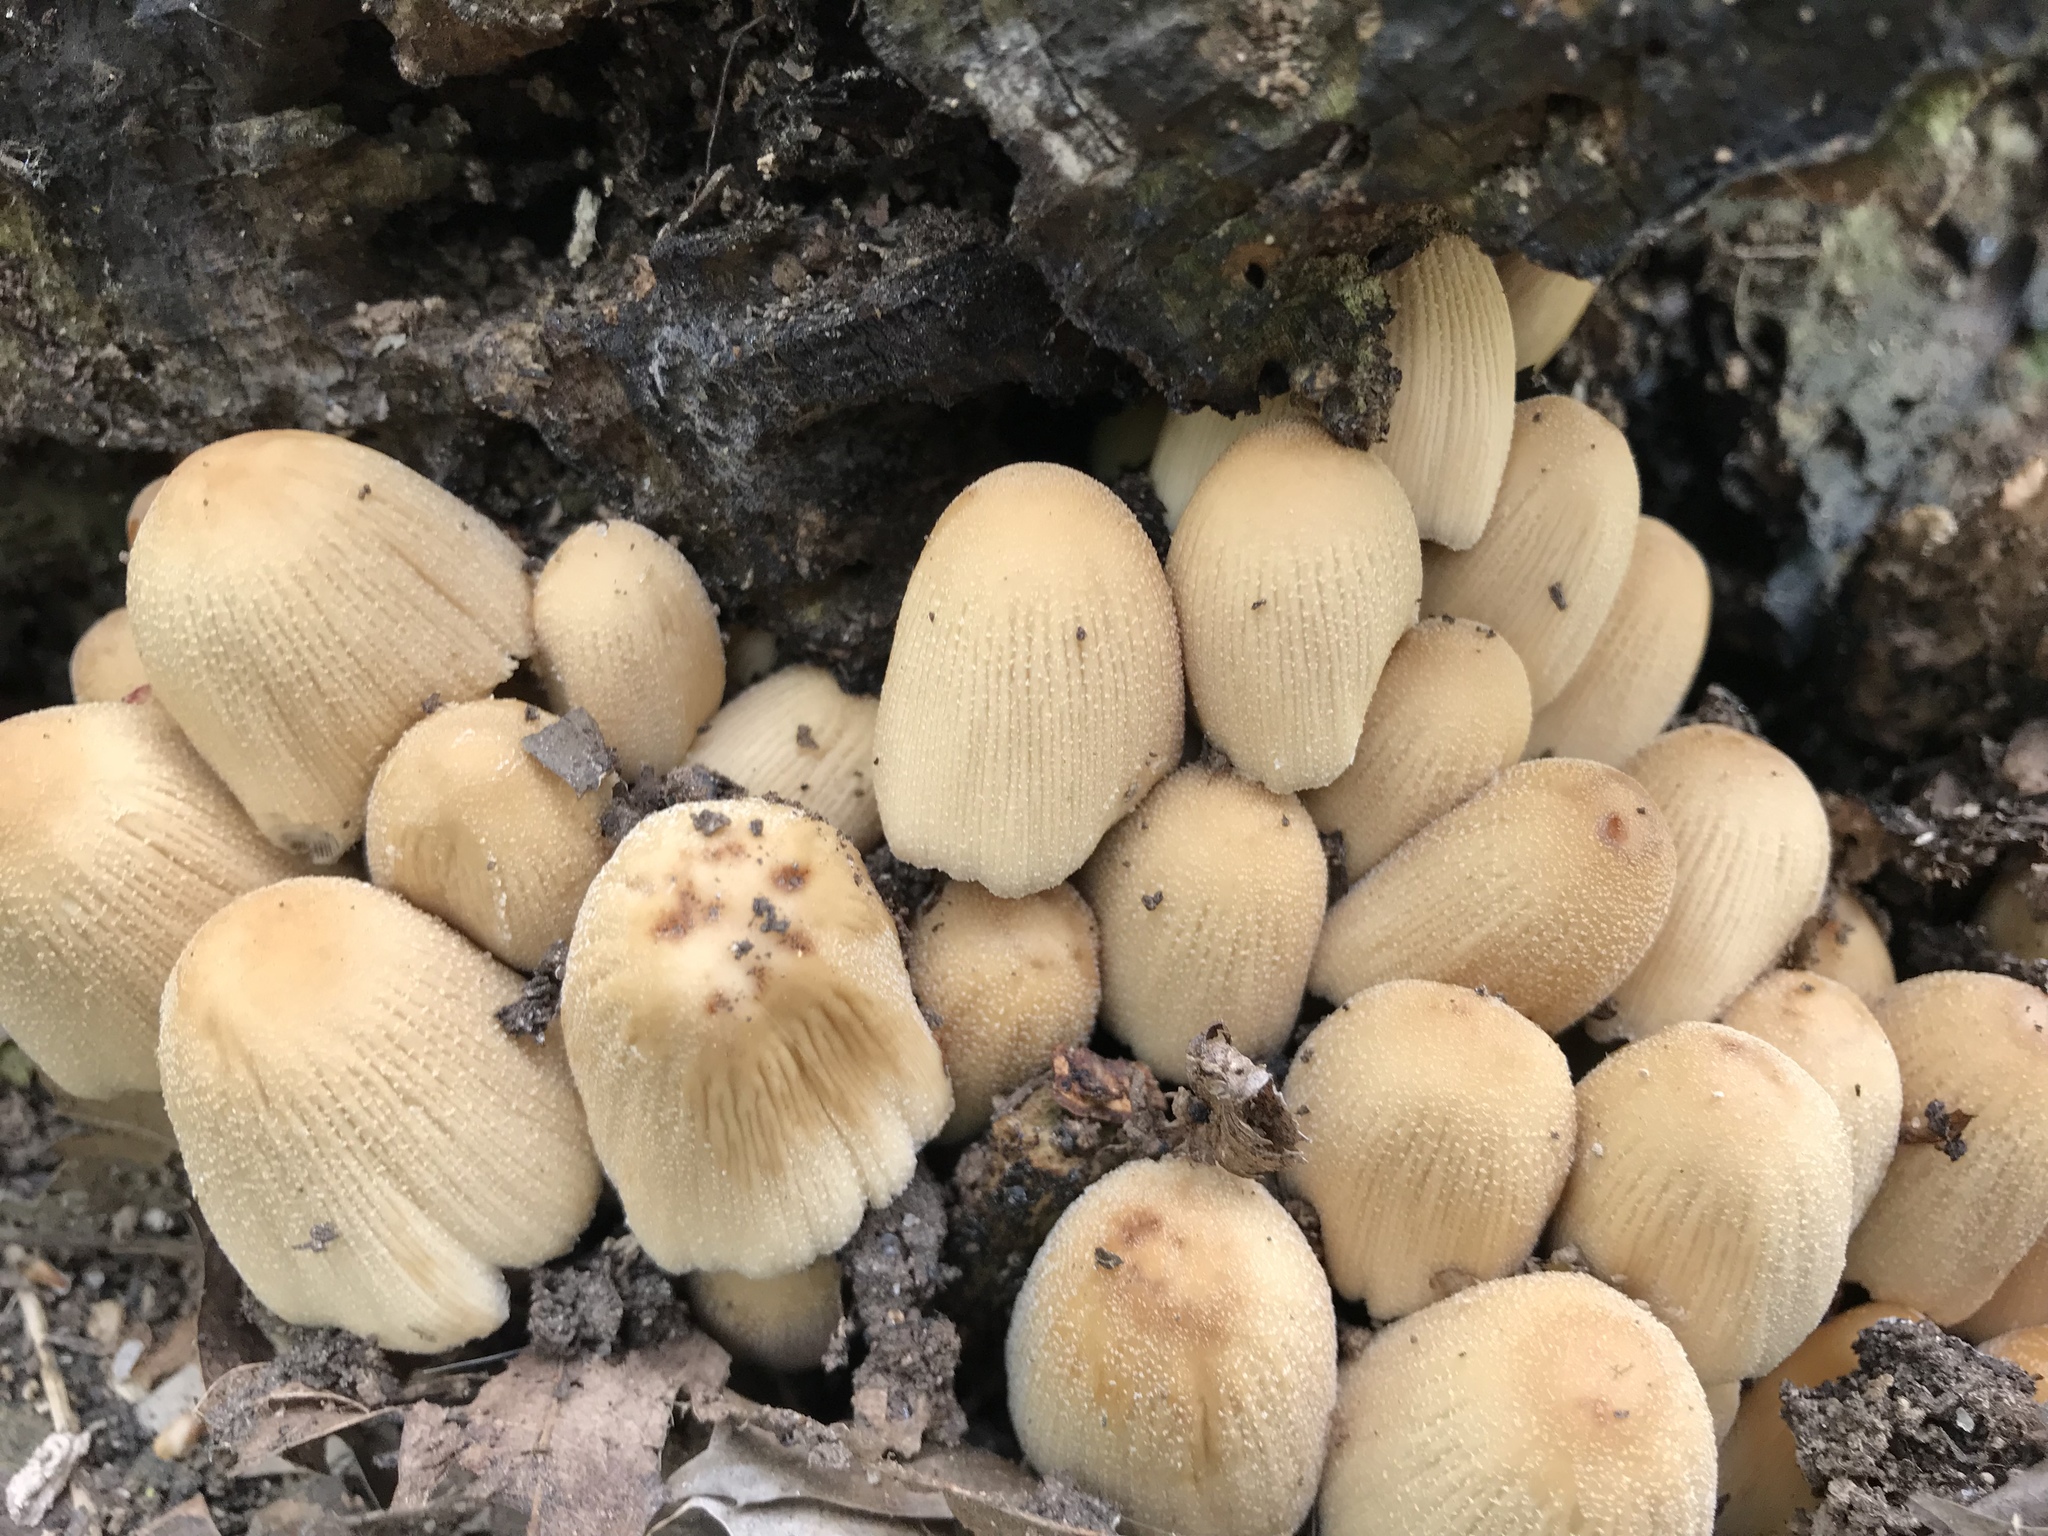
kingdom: Fungi
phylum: Basidiomycota
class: Agaricomycetes
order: Agaricales
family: Psathyrellaceae
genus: Coprinellus
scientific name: Coprinellus micaceus
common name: Glistening ink-cap
